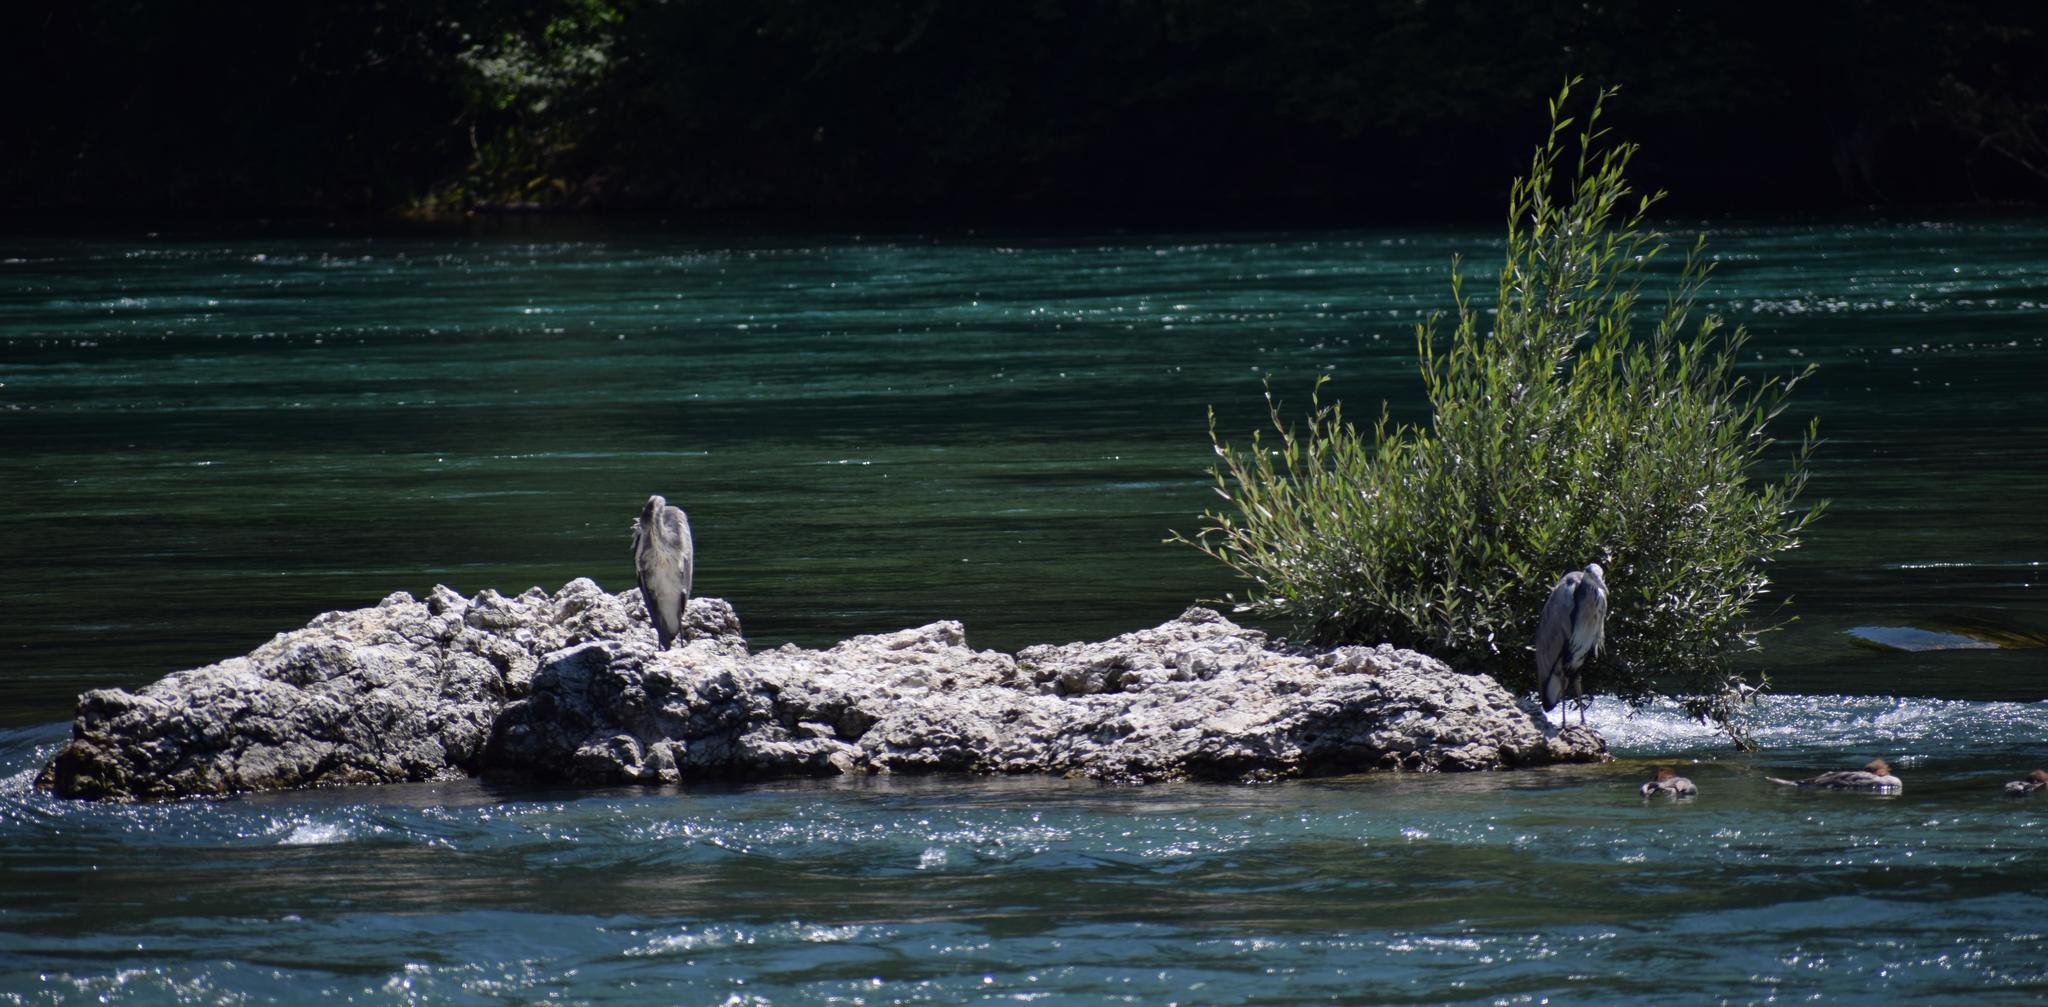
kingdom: Animalia
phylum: Chordata
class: Aves
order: Pelecaniformes
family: Ardeidae
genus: Ardea
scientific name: Ardea cinerea
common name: Grey heron
